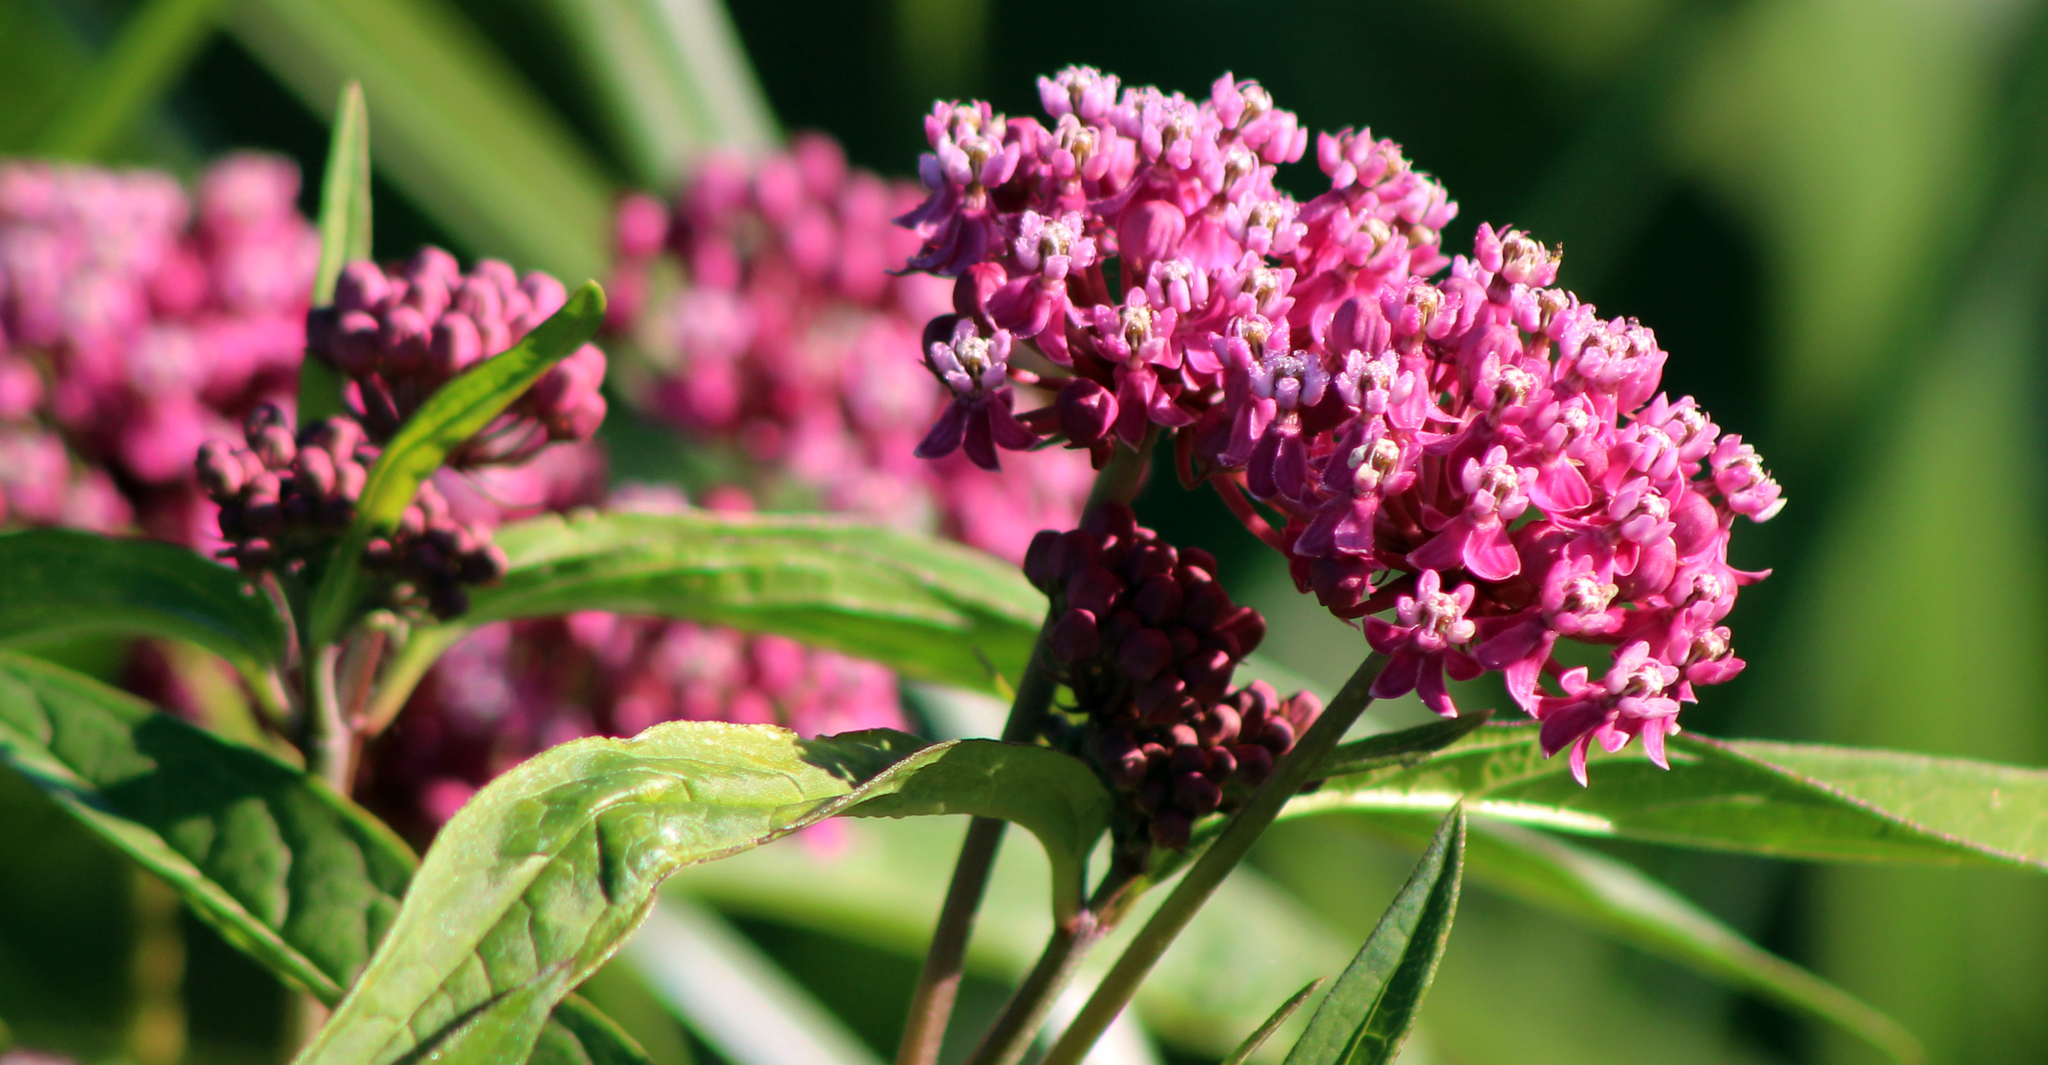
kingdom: Plantae
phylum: Tracheophyta
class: Magnoliopsida
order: Gentianales
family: Apocynaceae
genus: Asclepias
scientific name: Asclepias incarnata
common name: Swamp milkweed
